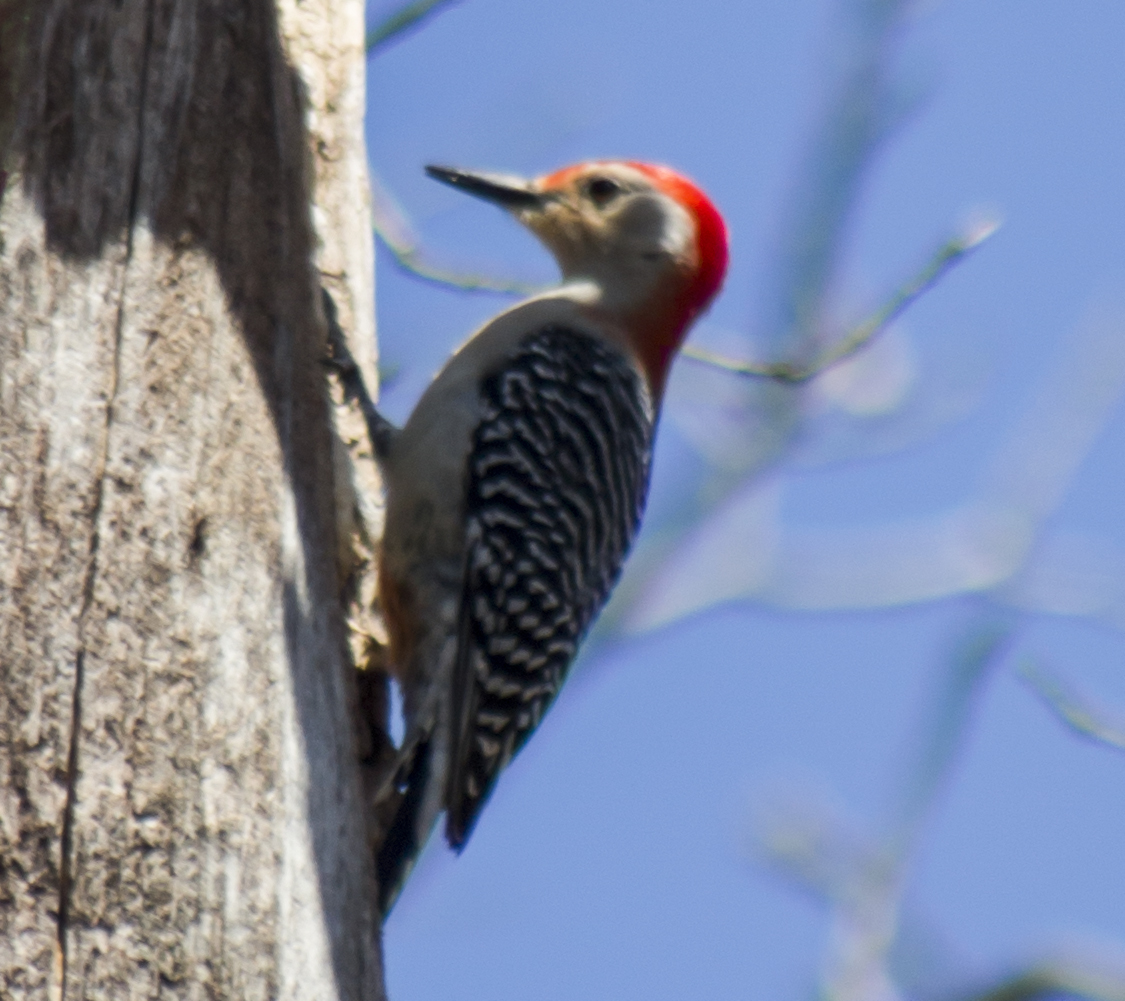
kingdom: Animalia
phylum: Chordata
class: Aves
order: Piciformes
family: Picidae
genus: Melanerpes
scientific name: Melanerpes carolinus
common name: Red-bellied woodpecker
